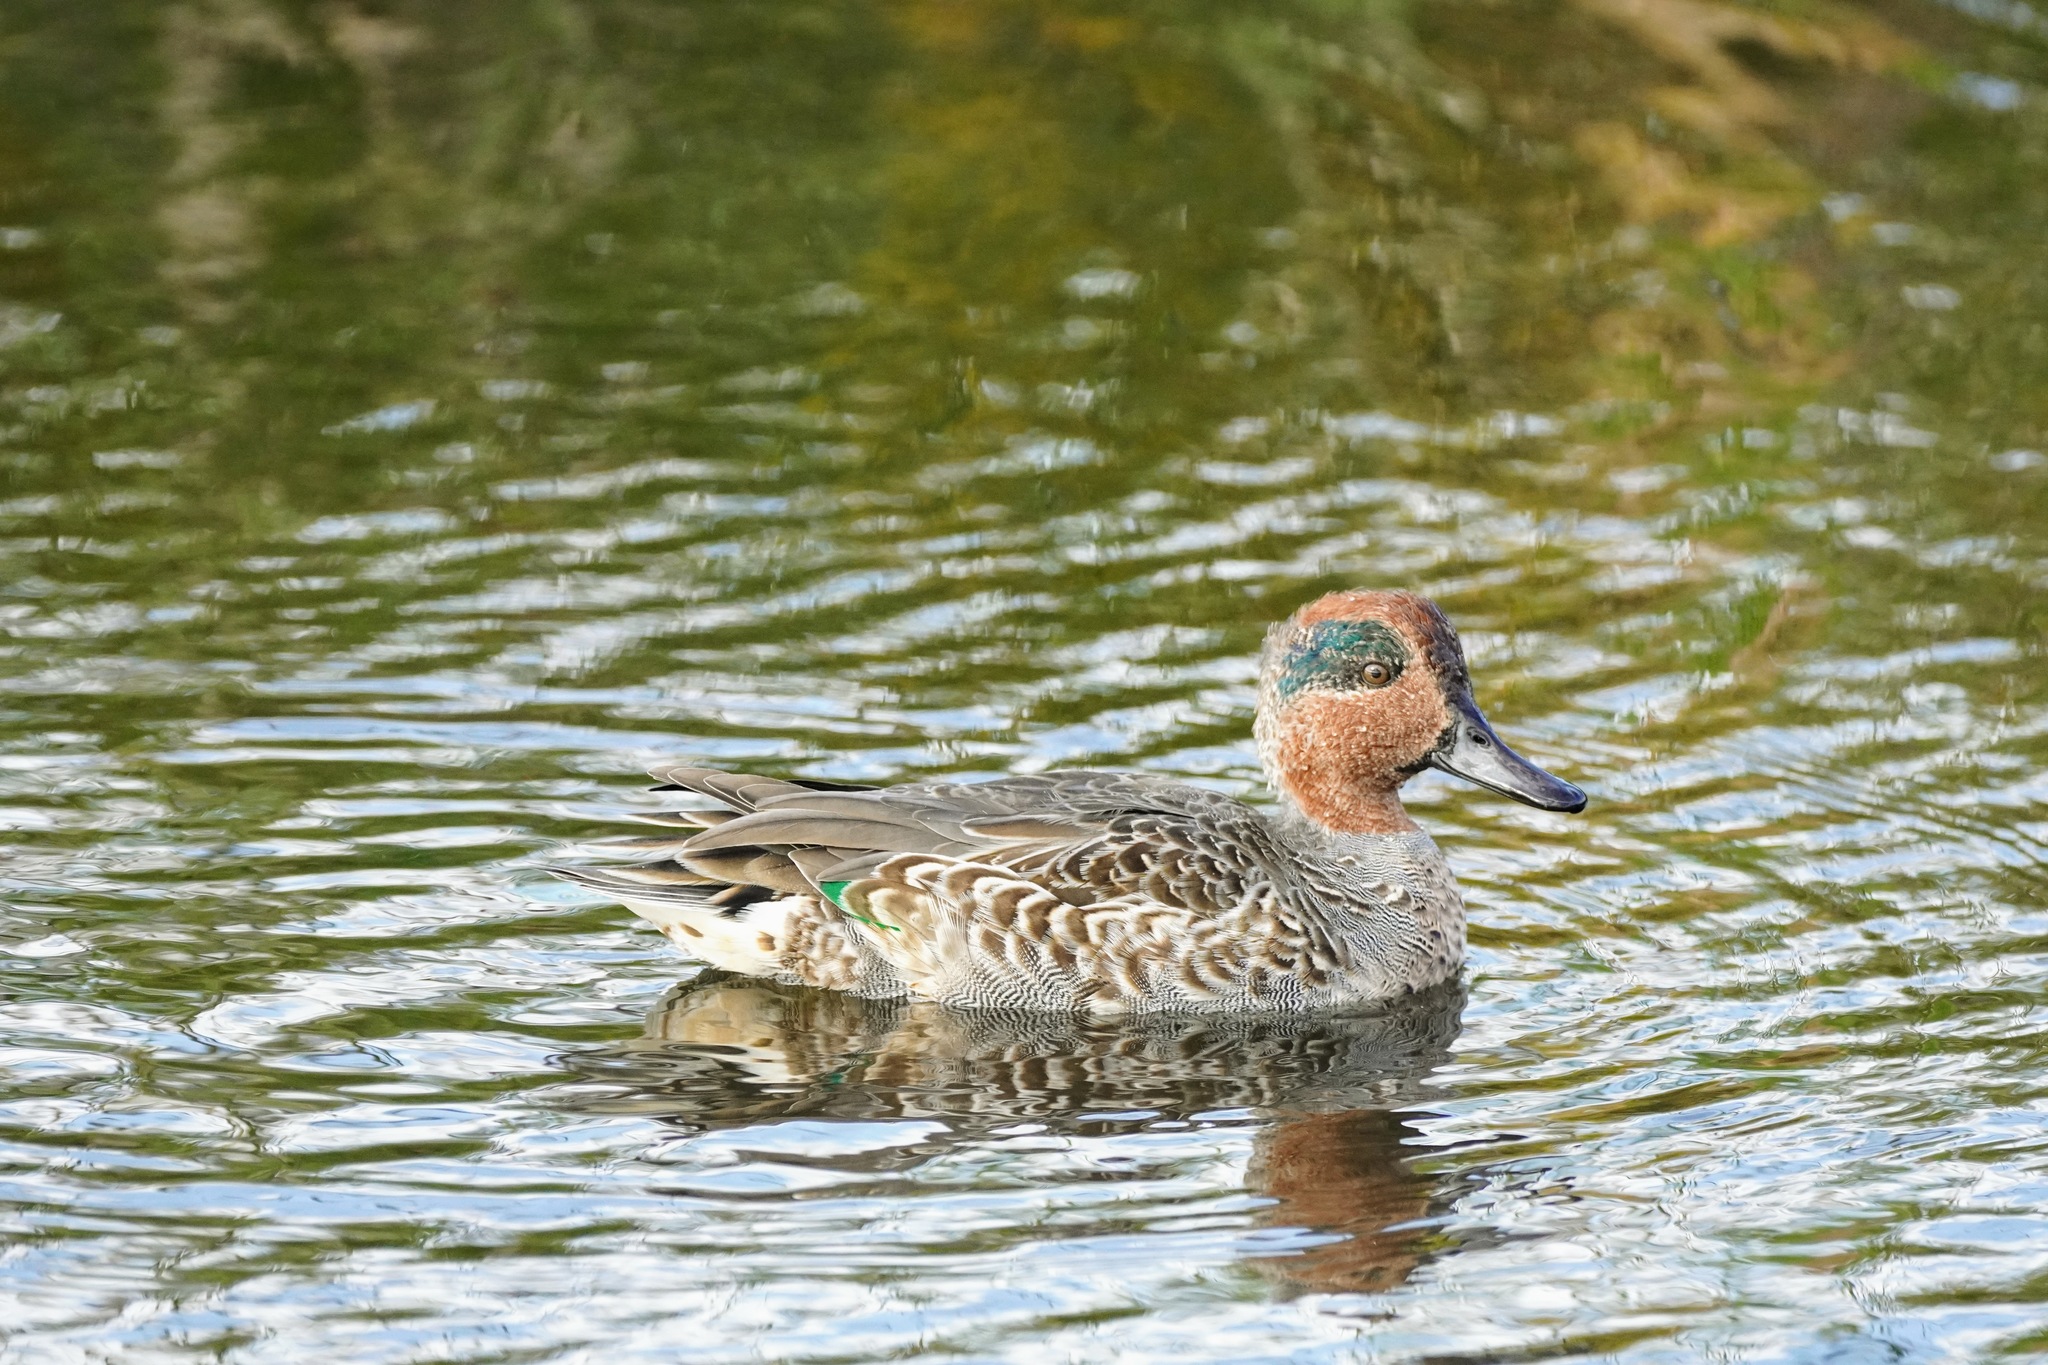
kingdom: Animalia
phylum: Chordata
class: Aves
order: Anseriformes
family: Anatidae
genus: Anas
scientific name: Anas crecca
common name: Eurasian teal
